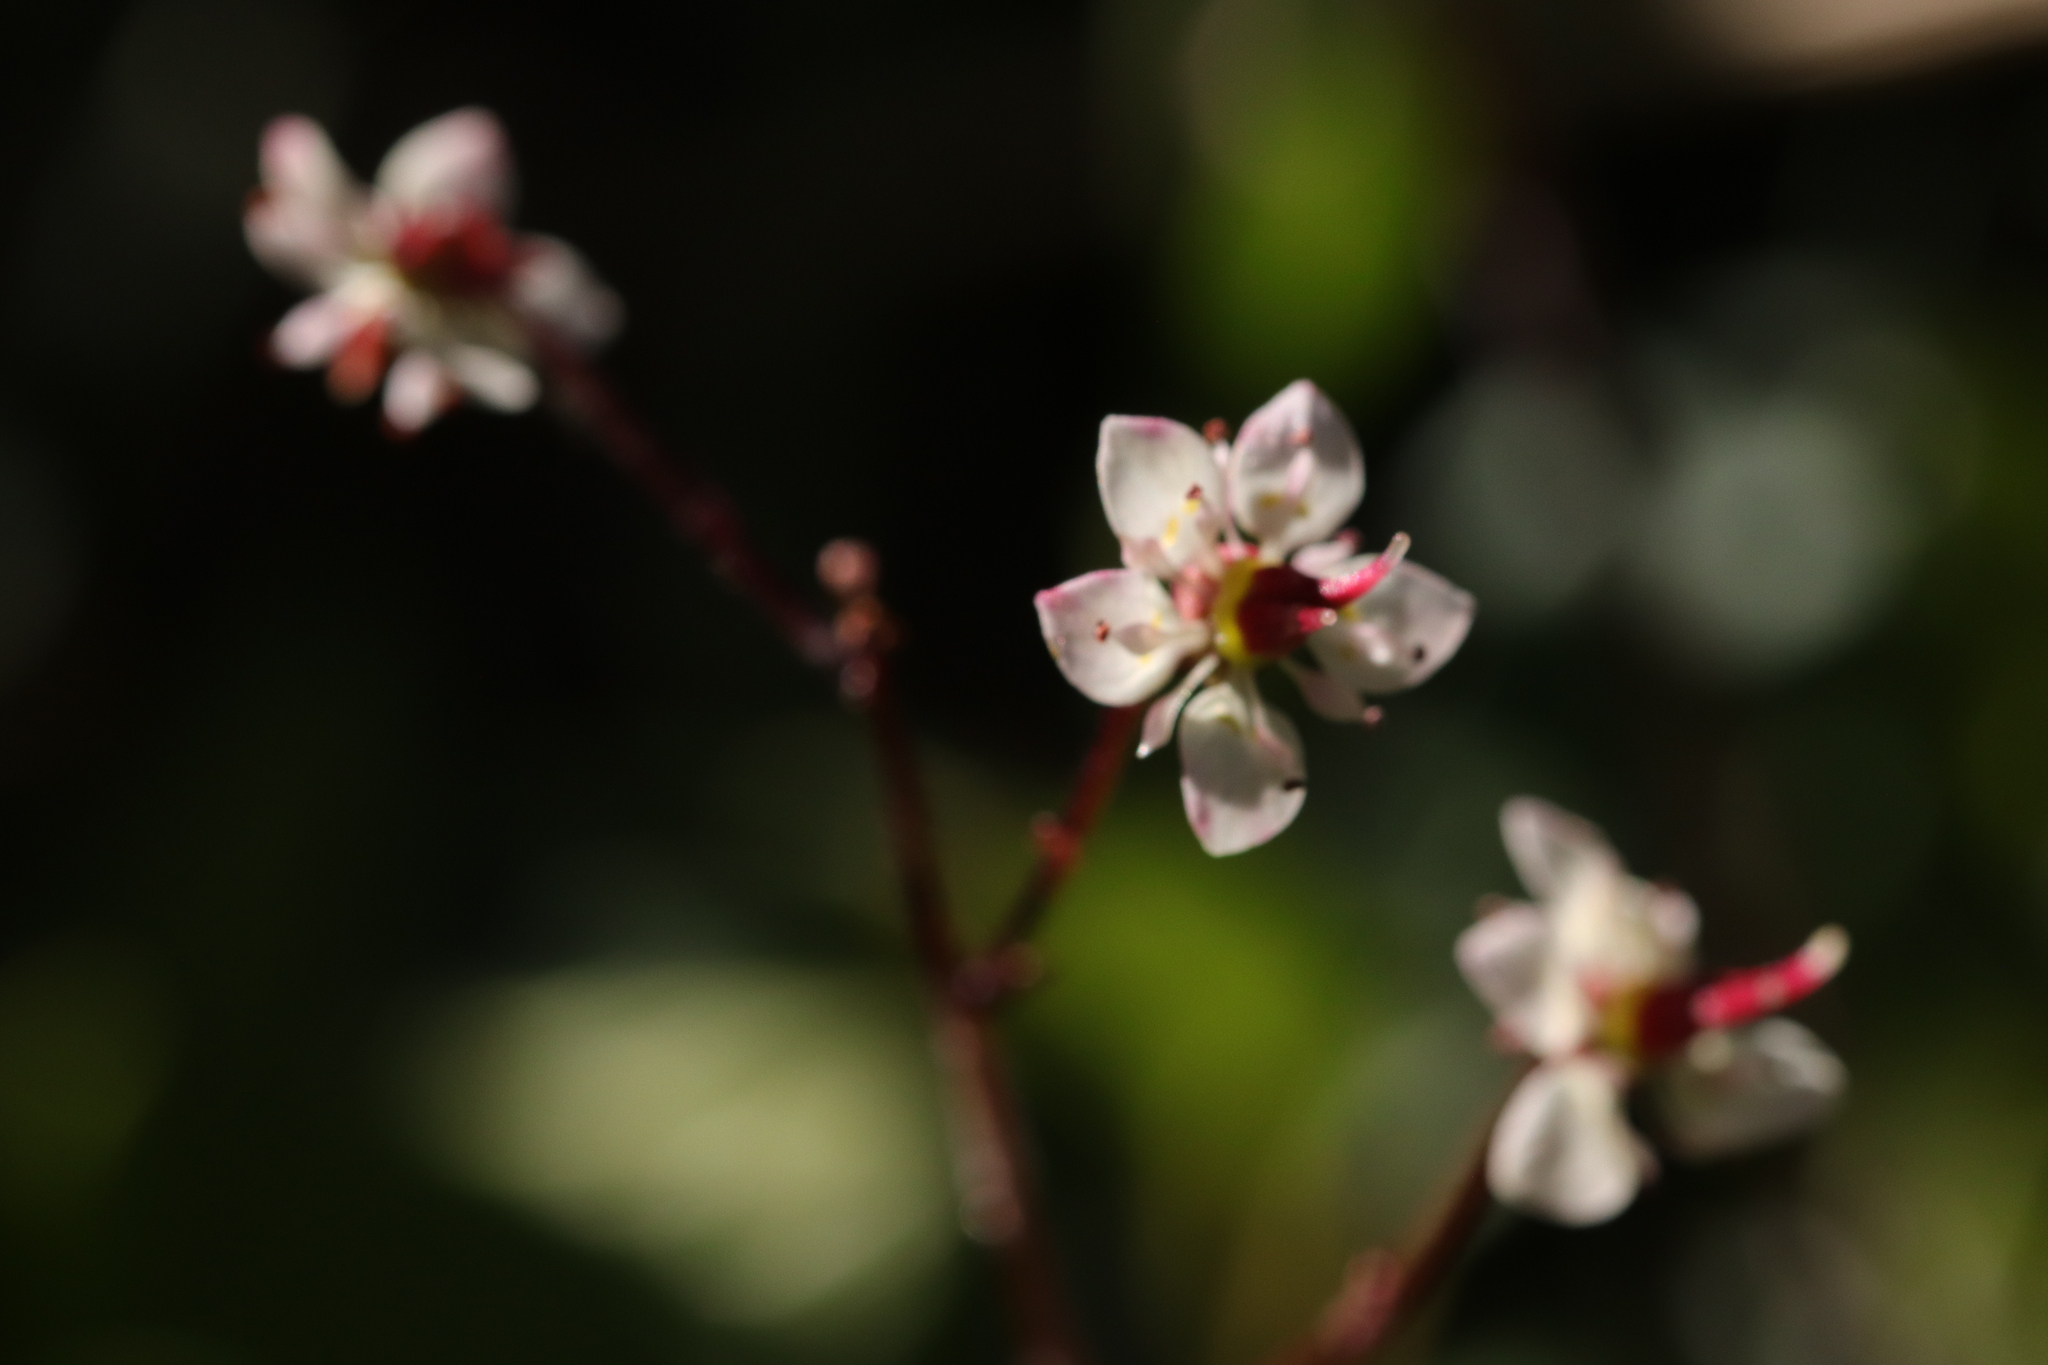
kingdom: Plantae
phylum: Tracheophyta
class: Magnoliopsida
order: Saxifragales
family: Saxifragaceae
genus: Micranthes
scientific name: Micranthes lyallii
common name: Lyall's saxifrage
